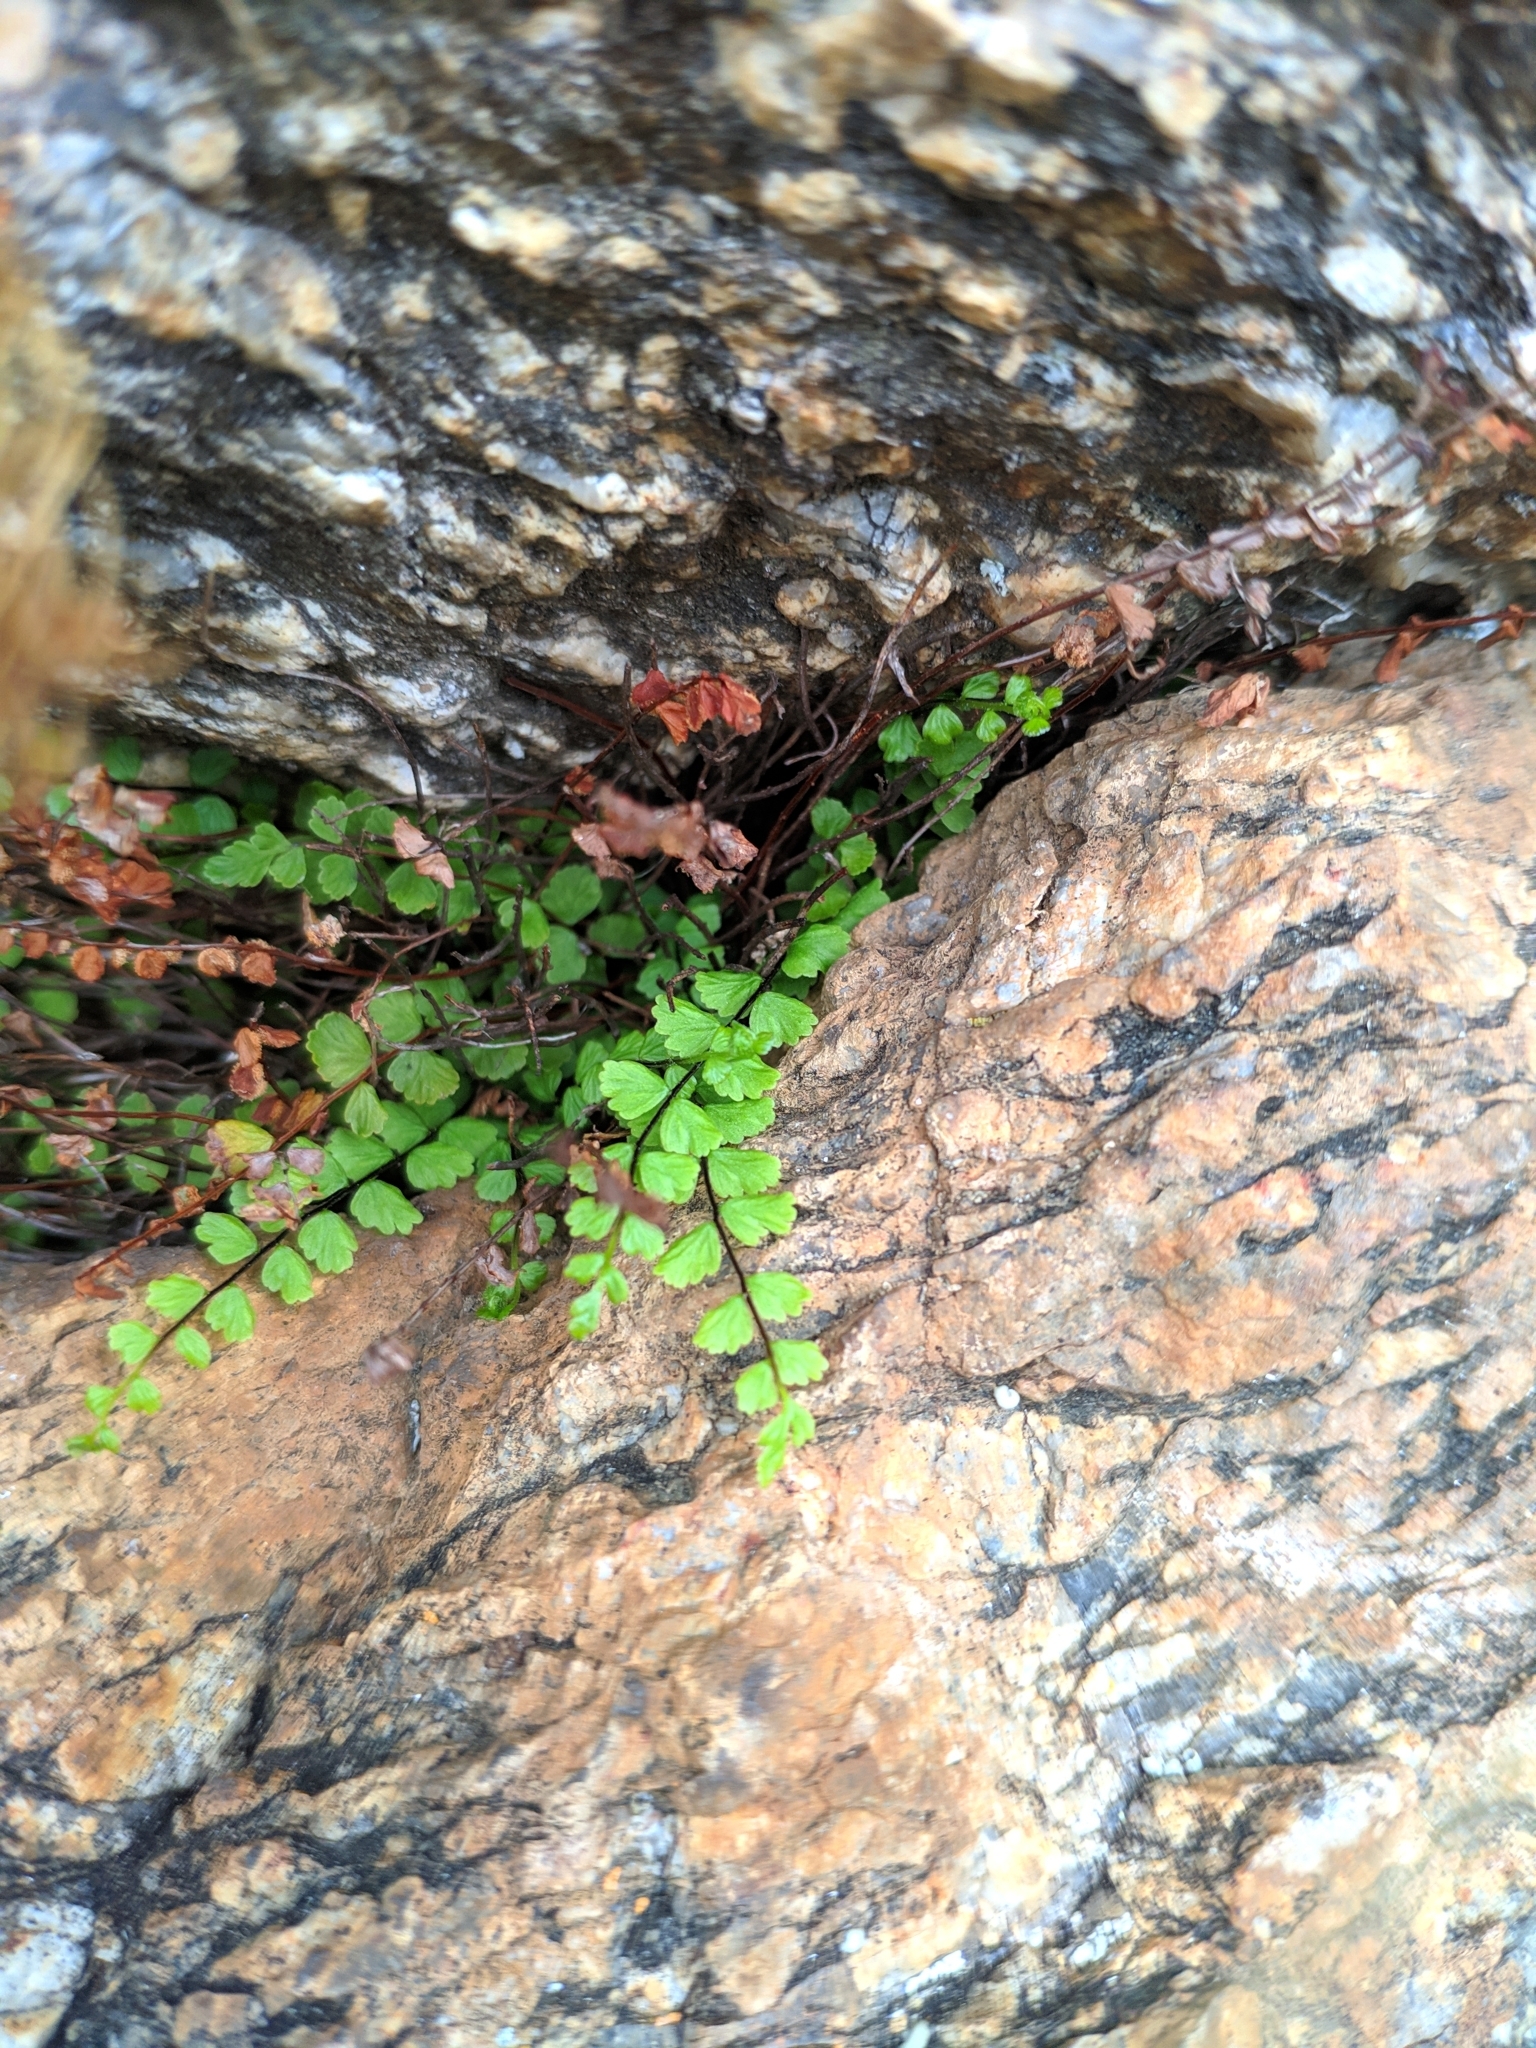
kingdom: Plantae
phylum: Tracheophyta
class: Polypodiopsida
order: Polypodiales
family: Aspleniaceae
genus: Asplenium
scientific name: Asplenium trichomanes
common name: Maidenhair spleenwort
